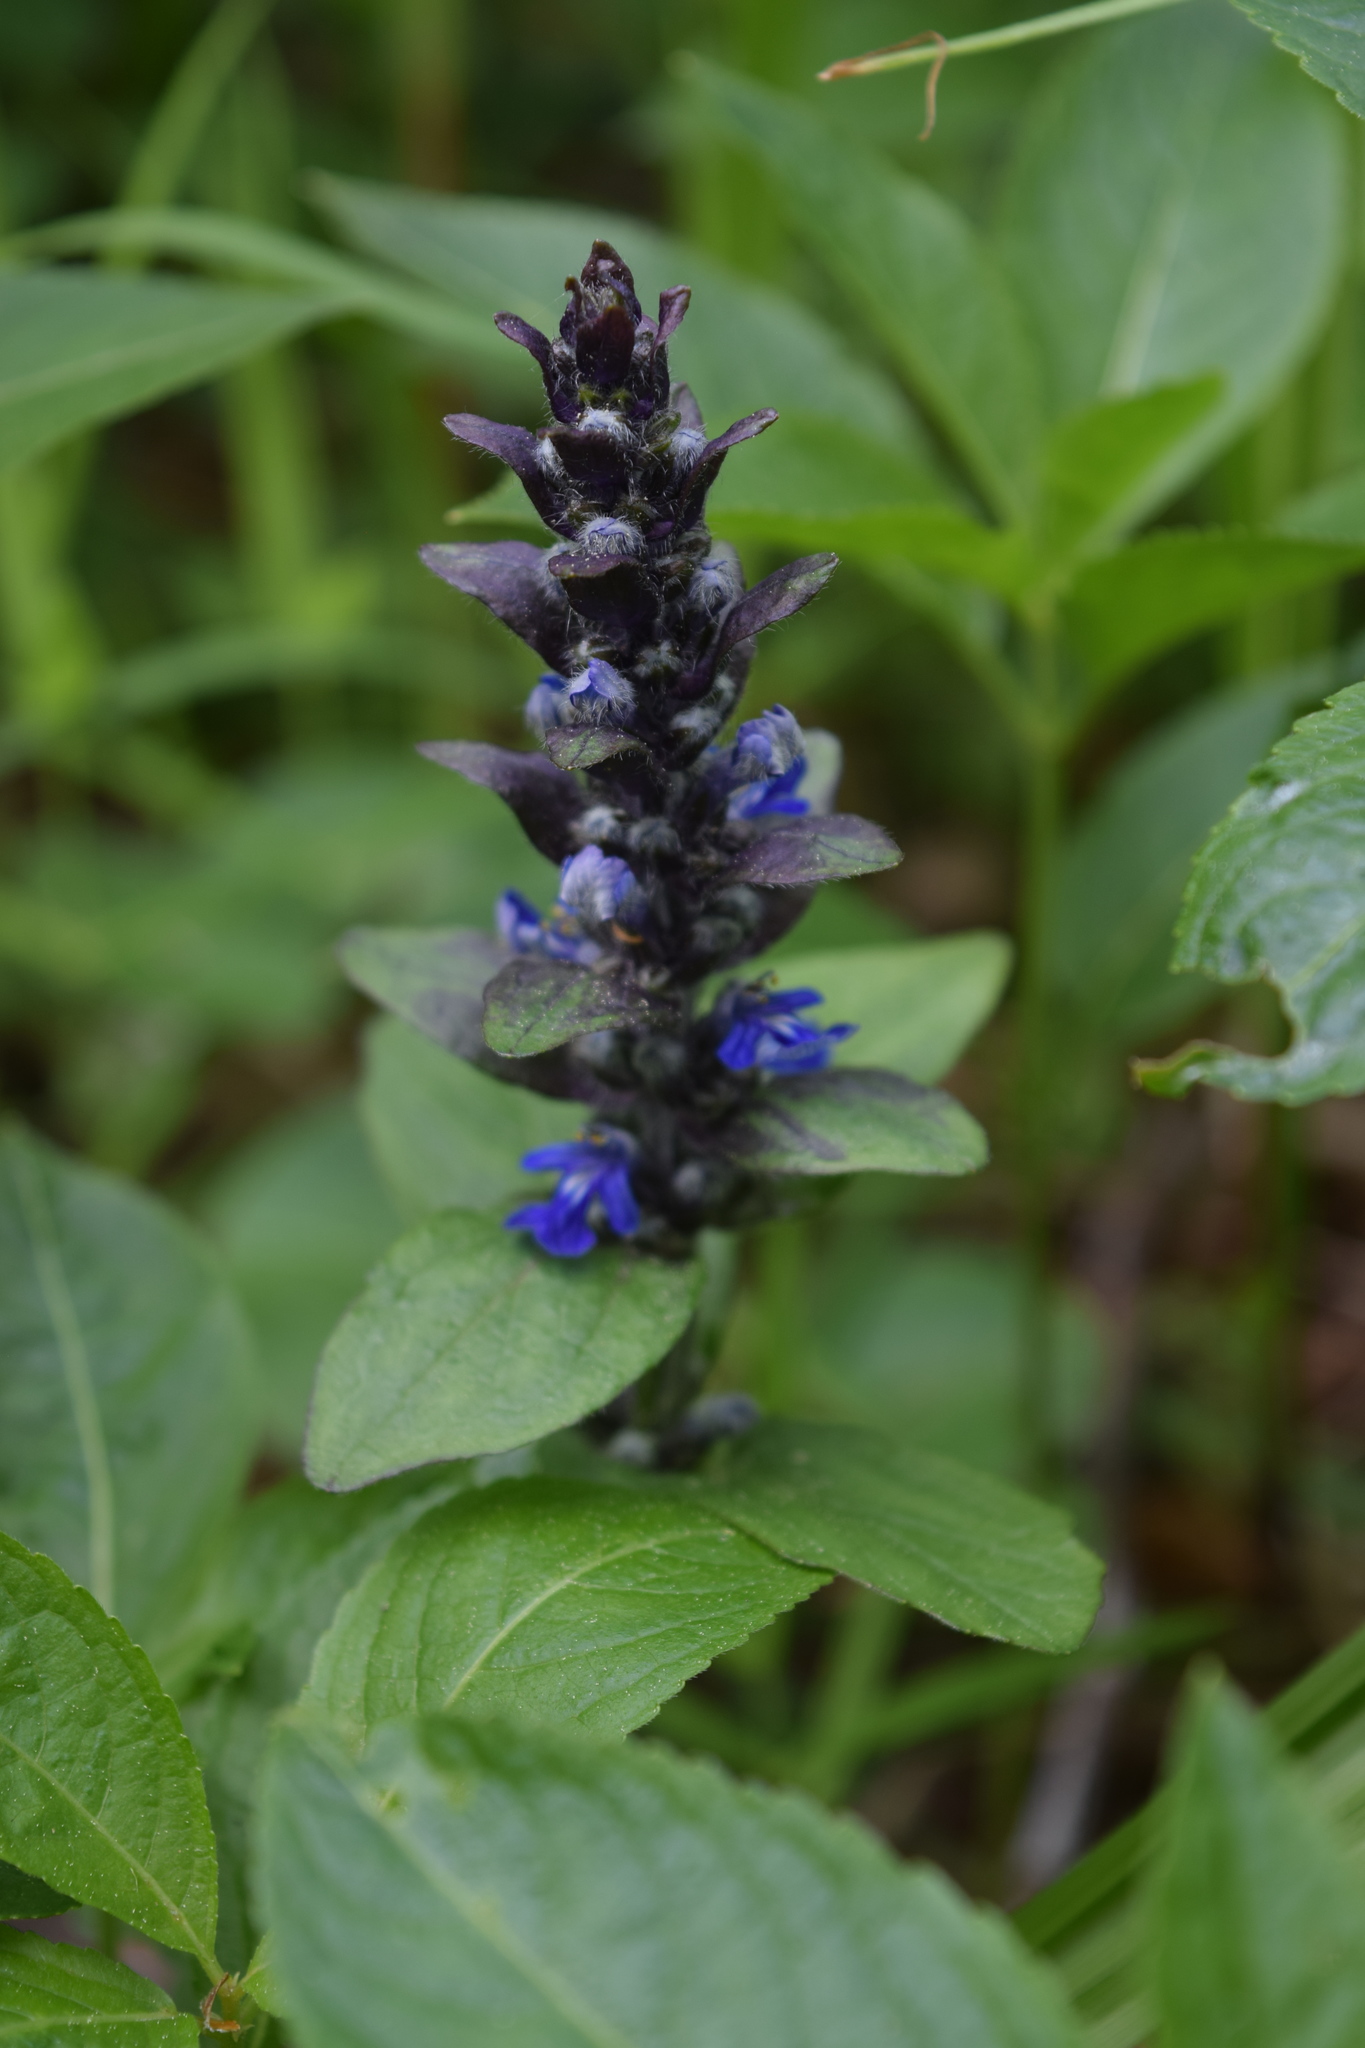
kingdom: Plantae
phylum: Tracheophyta
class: Magnoliopsida
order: Lamiales
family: Lamiaceae
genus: Ajuga
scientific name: Ajuga reptans
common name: Bugle
